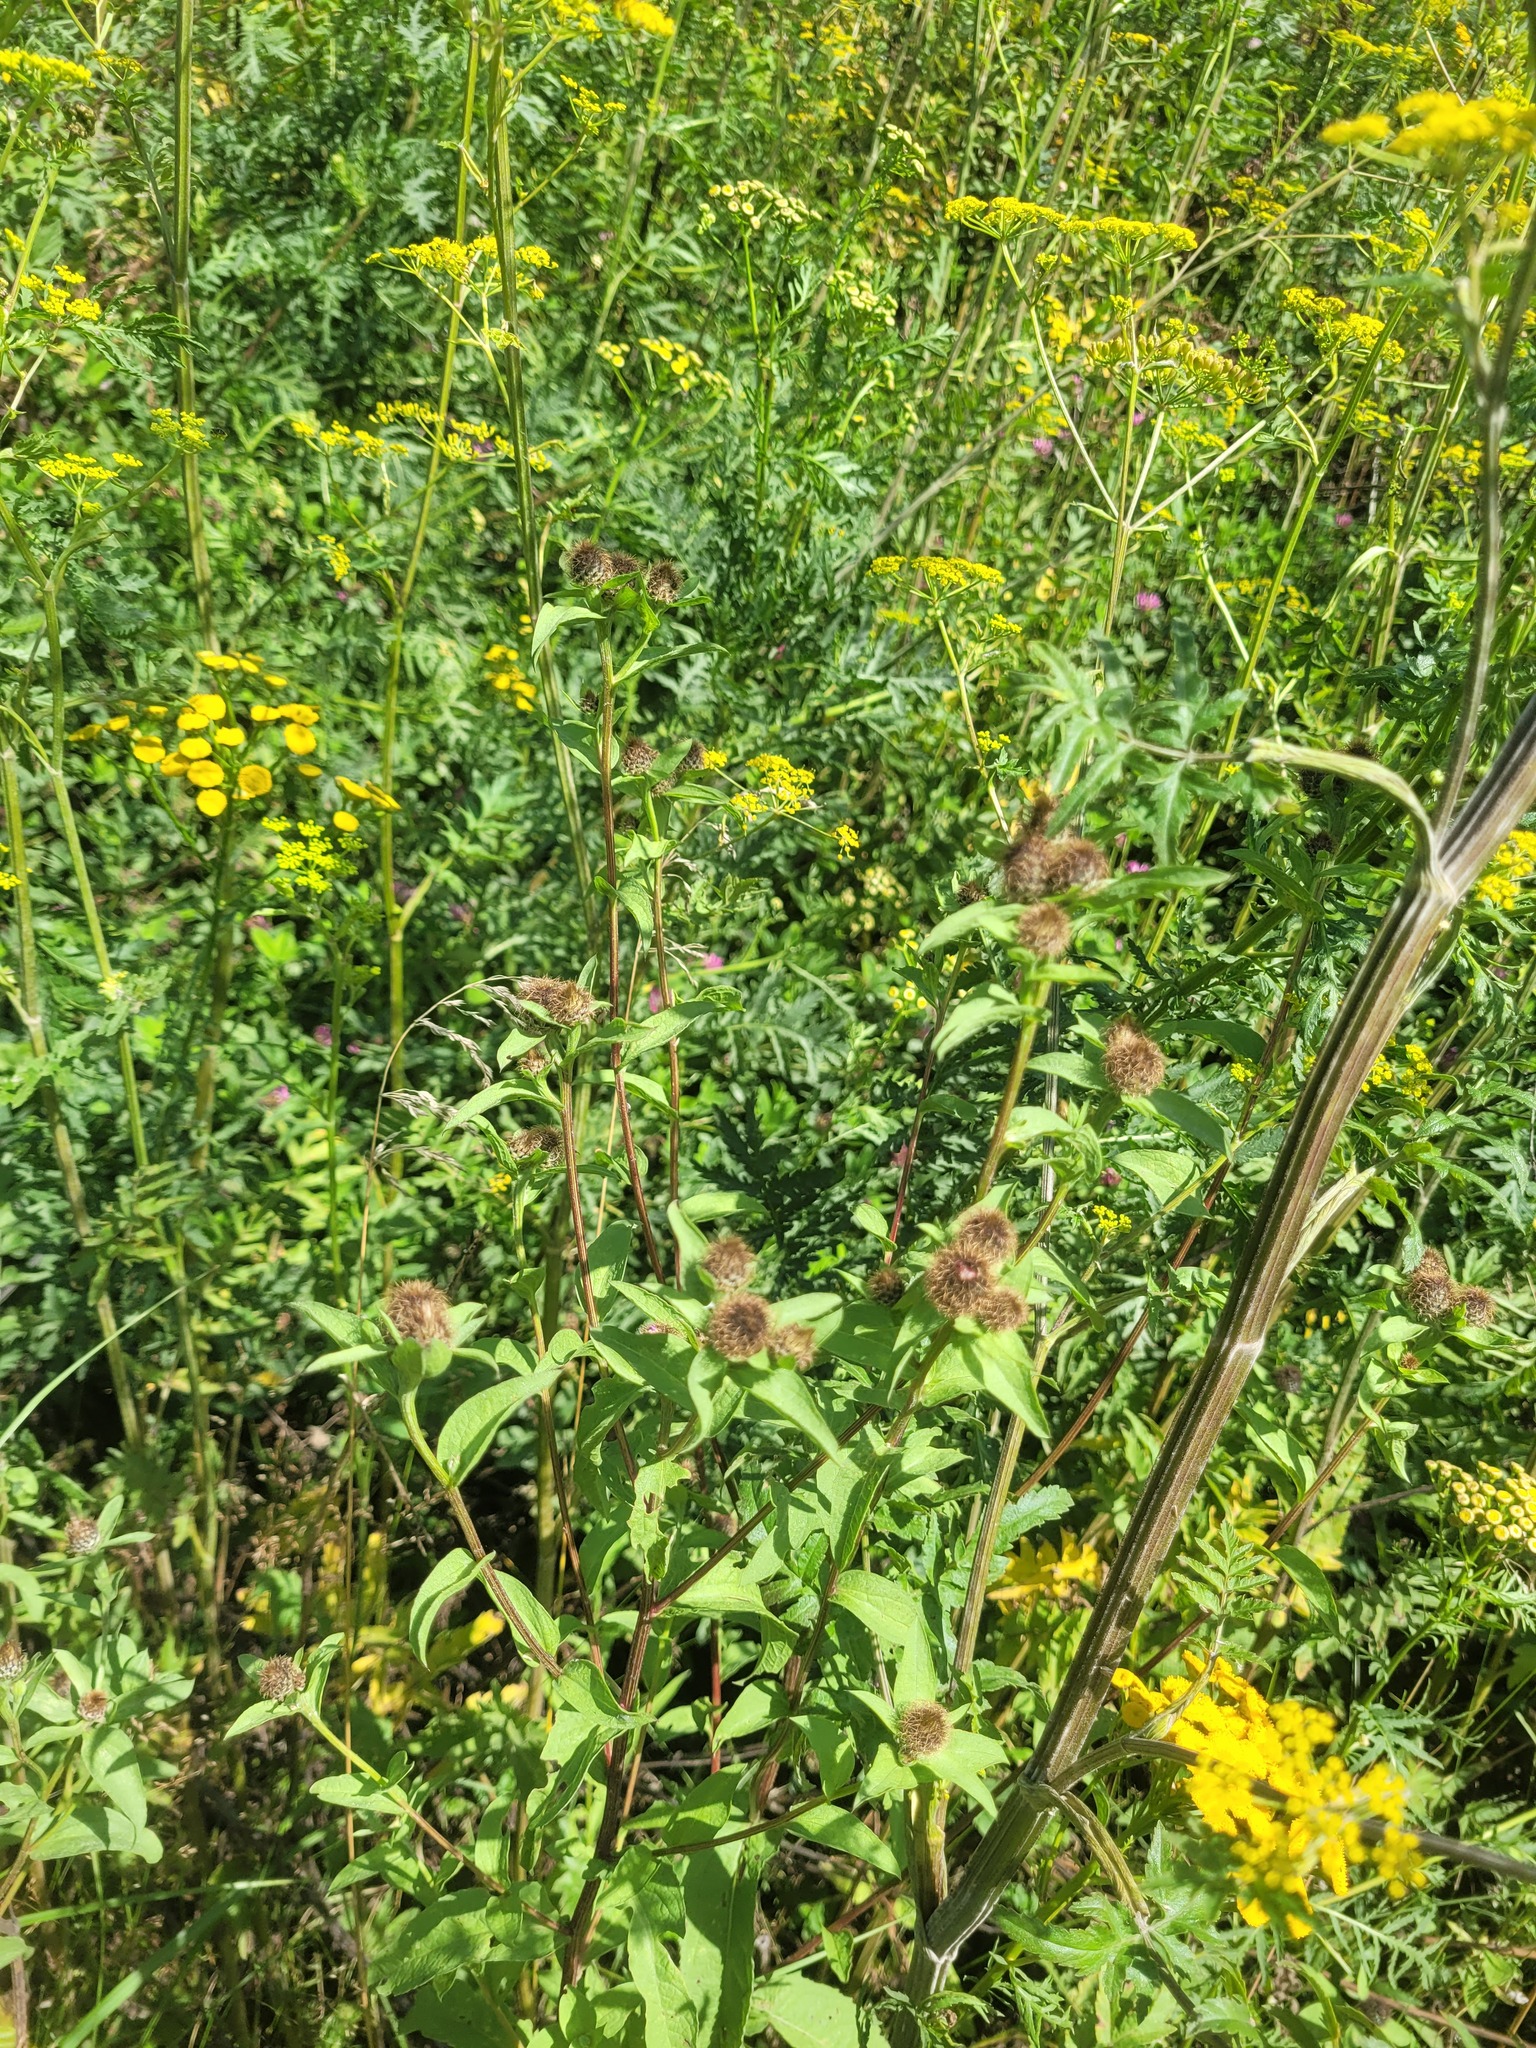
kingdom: Plantae
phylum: Tracheophyta
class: Magnoliopsida
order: Asterales
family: Asteraceae
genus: Centaurea
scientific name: Centaurea pseudophrygia
